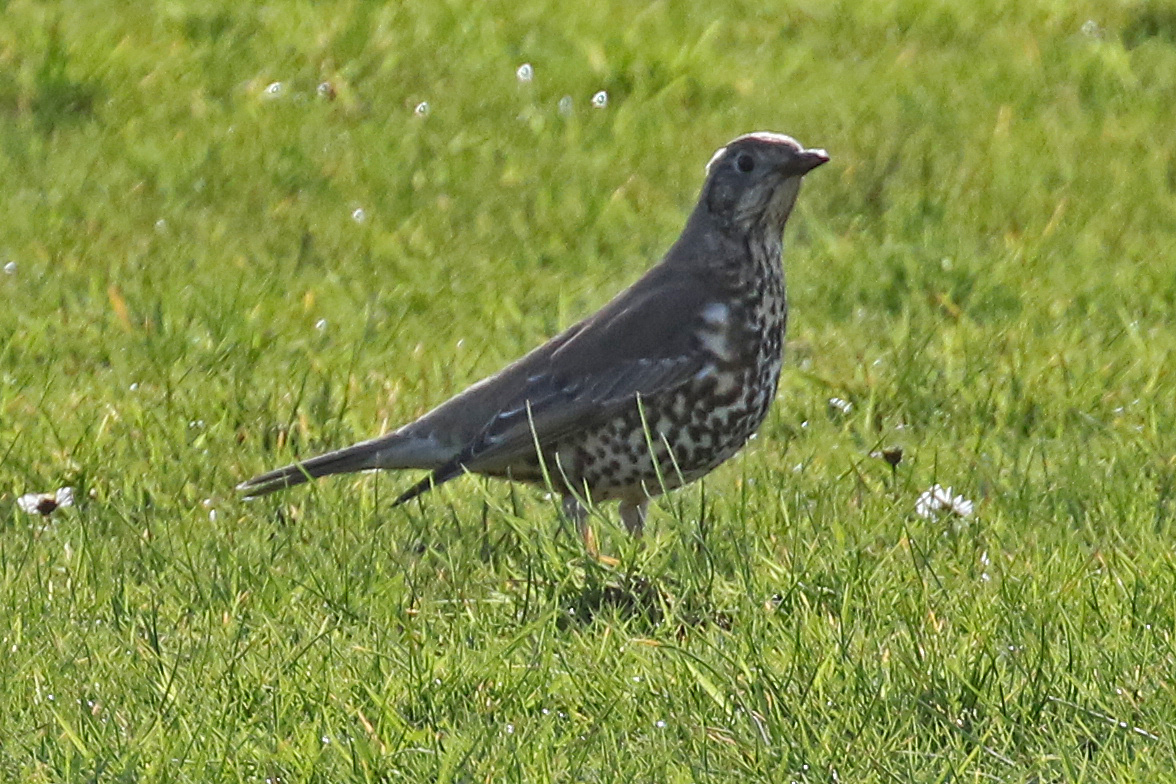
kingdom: Animalia
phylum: Chordata
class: Aves
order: Passeriformes
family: Turdidae
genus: Turdus
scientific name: Turdus viscivorus
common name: Mistle thrush
